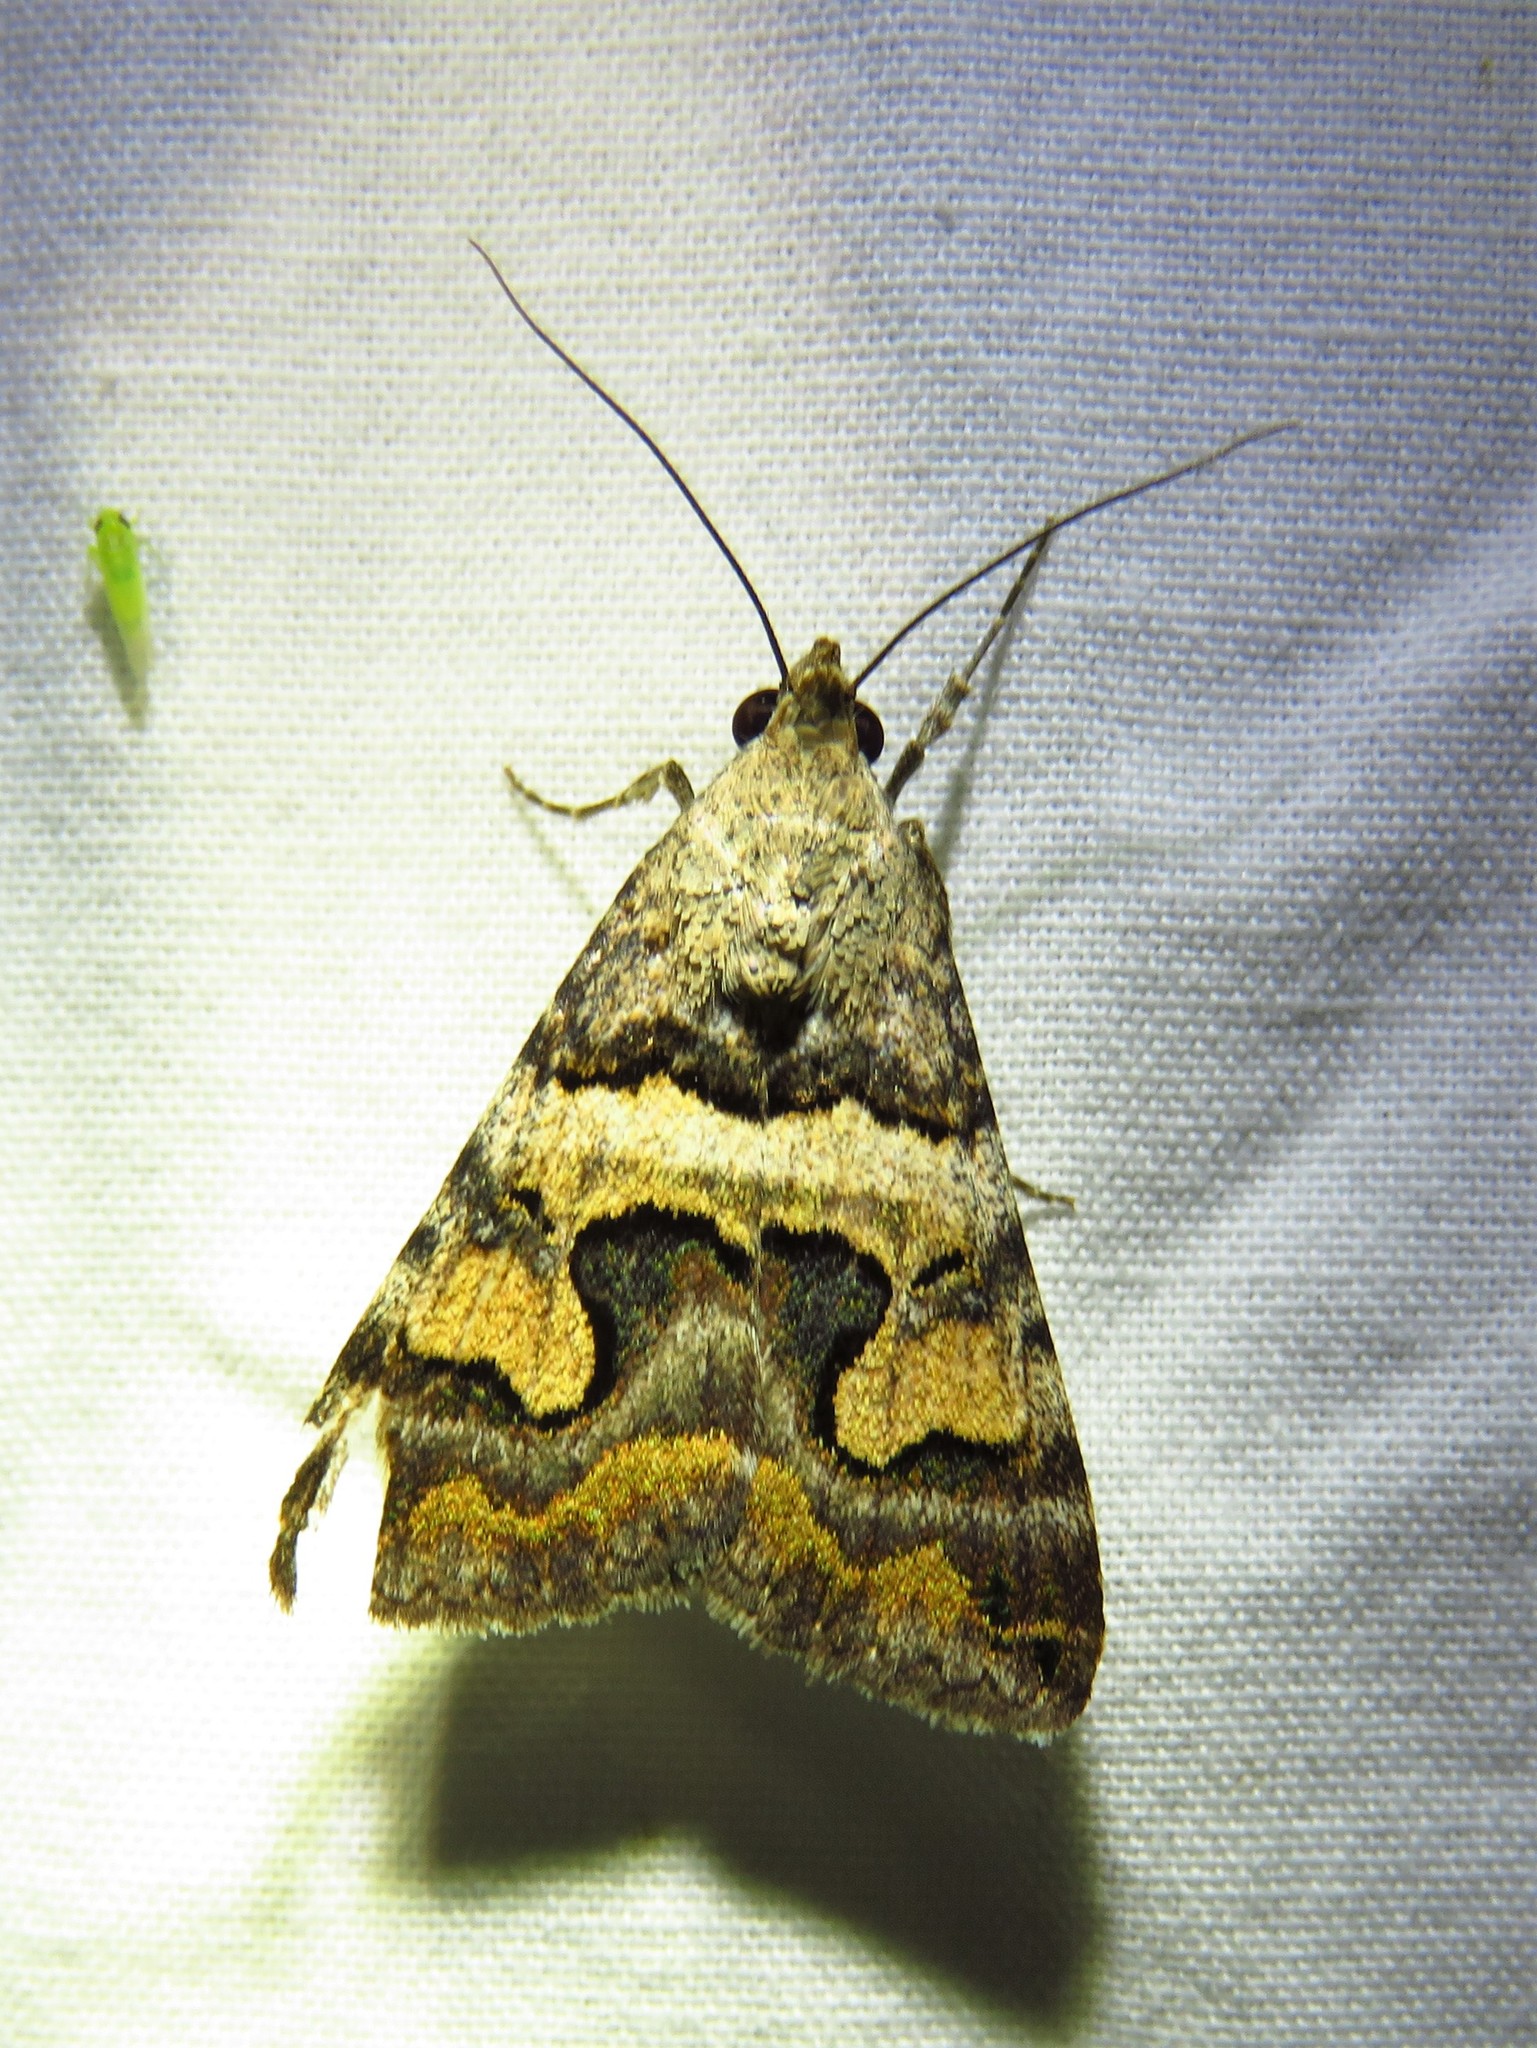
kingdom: Animalia
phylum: Arthropoda
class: Insecta
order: Lepidoptera
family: Erebidae
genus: Bulia
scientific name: Bulia deducta
